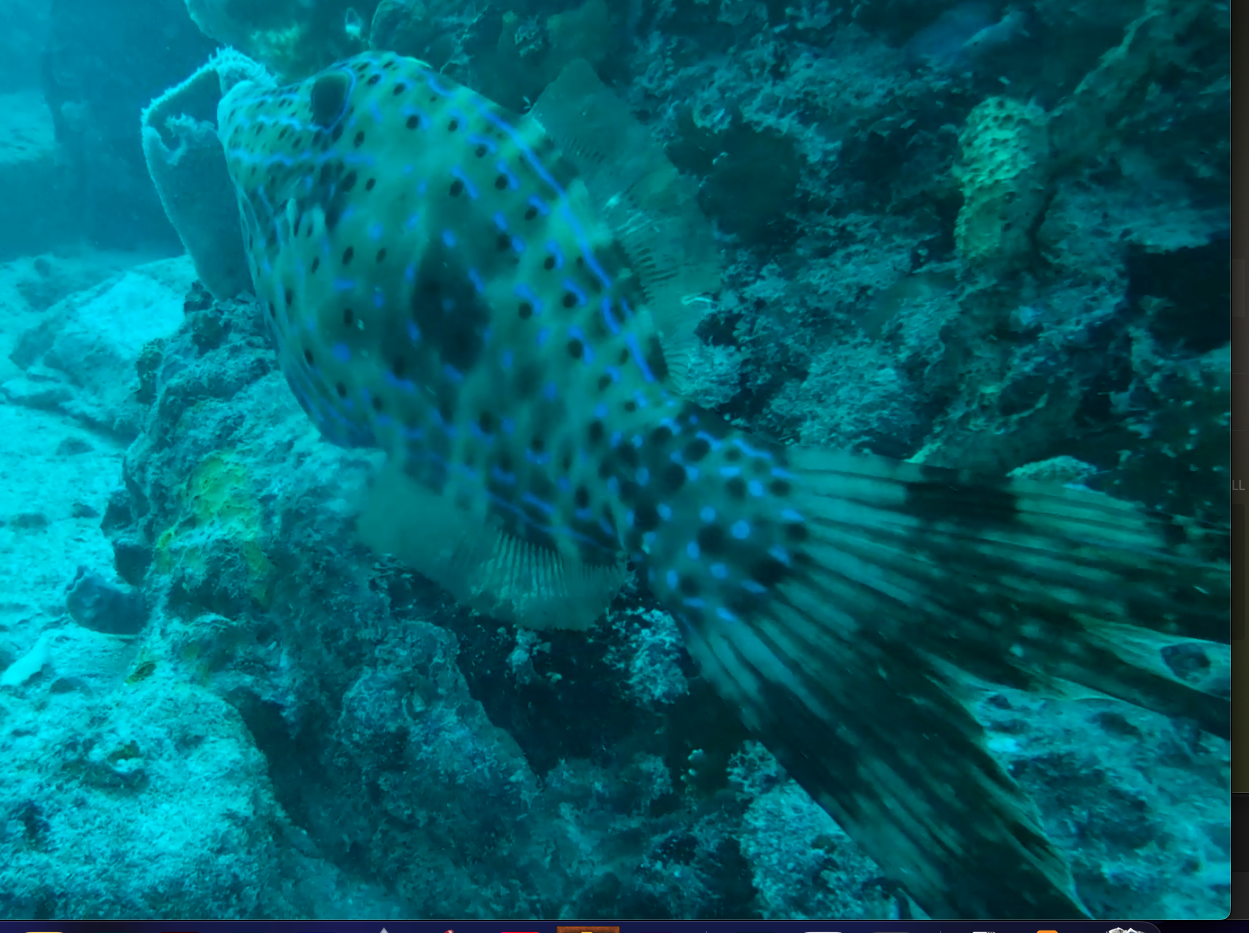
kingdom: Animalia
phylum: Chordata
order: Tetraodontiformes
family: Monacanthidae
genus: Aluterus
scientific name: Aluterus scriptus
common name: Scribbled leatherjacket filefish
